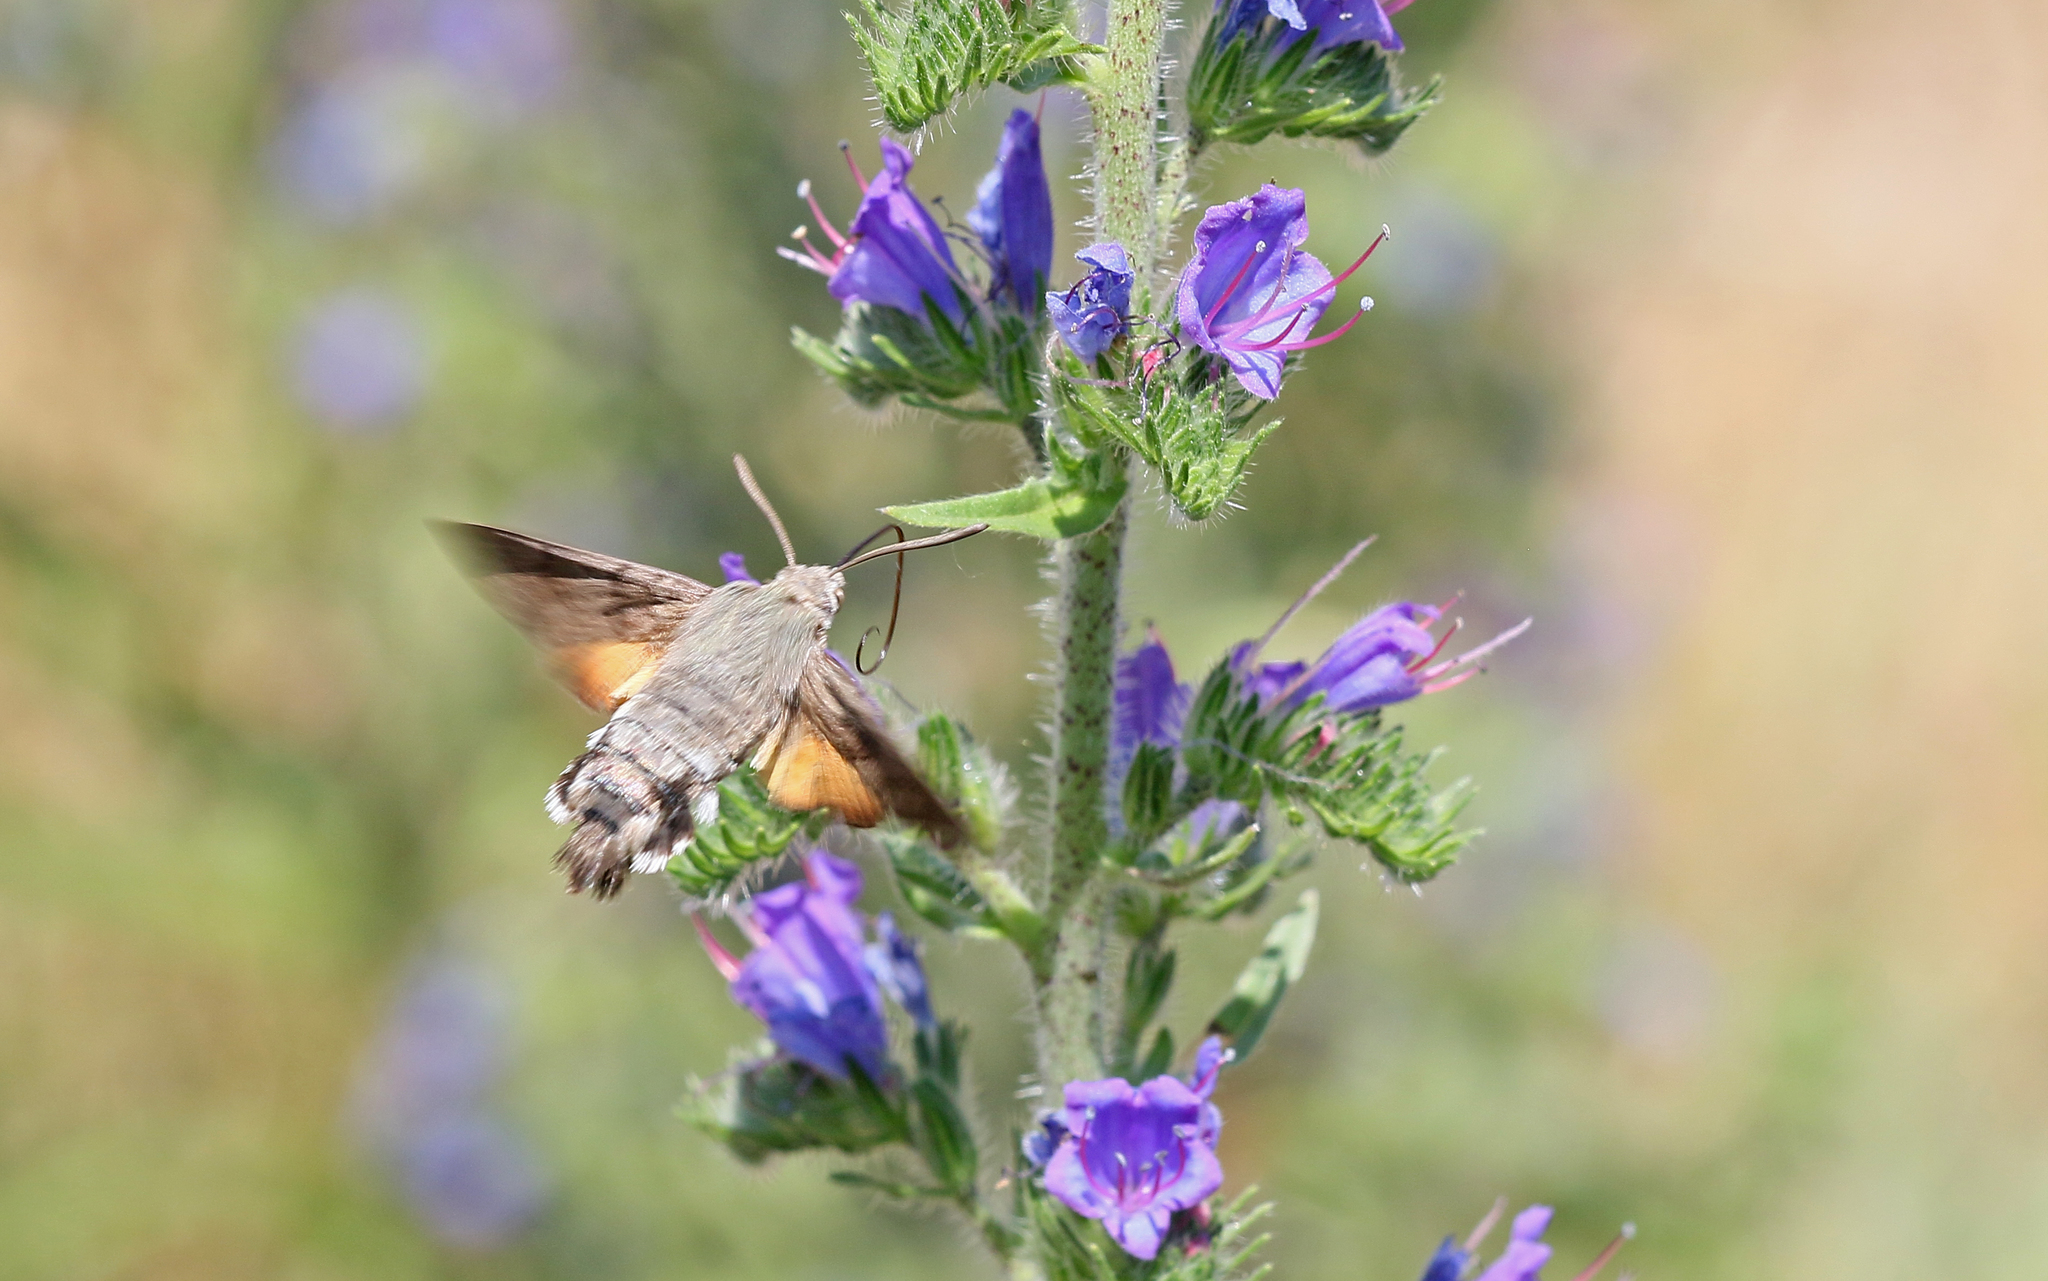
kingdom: Animalia
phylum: Arthropoda
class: Insecta
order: Lepidoptera
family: Sphingidae
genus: Macroglossum
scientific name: Macroglossum stellatarum
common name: Humming-bird hawk-moth
